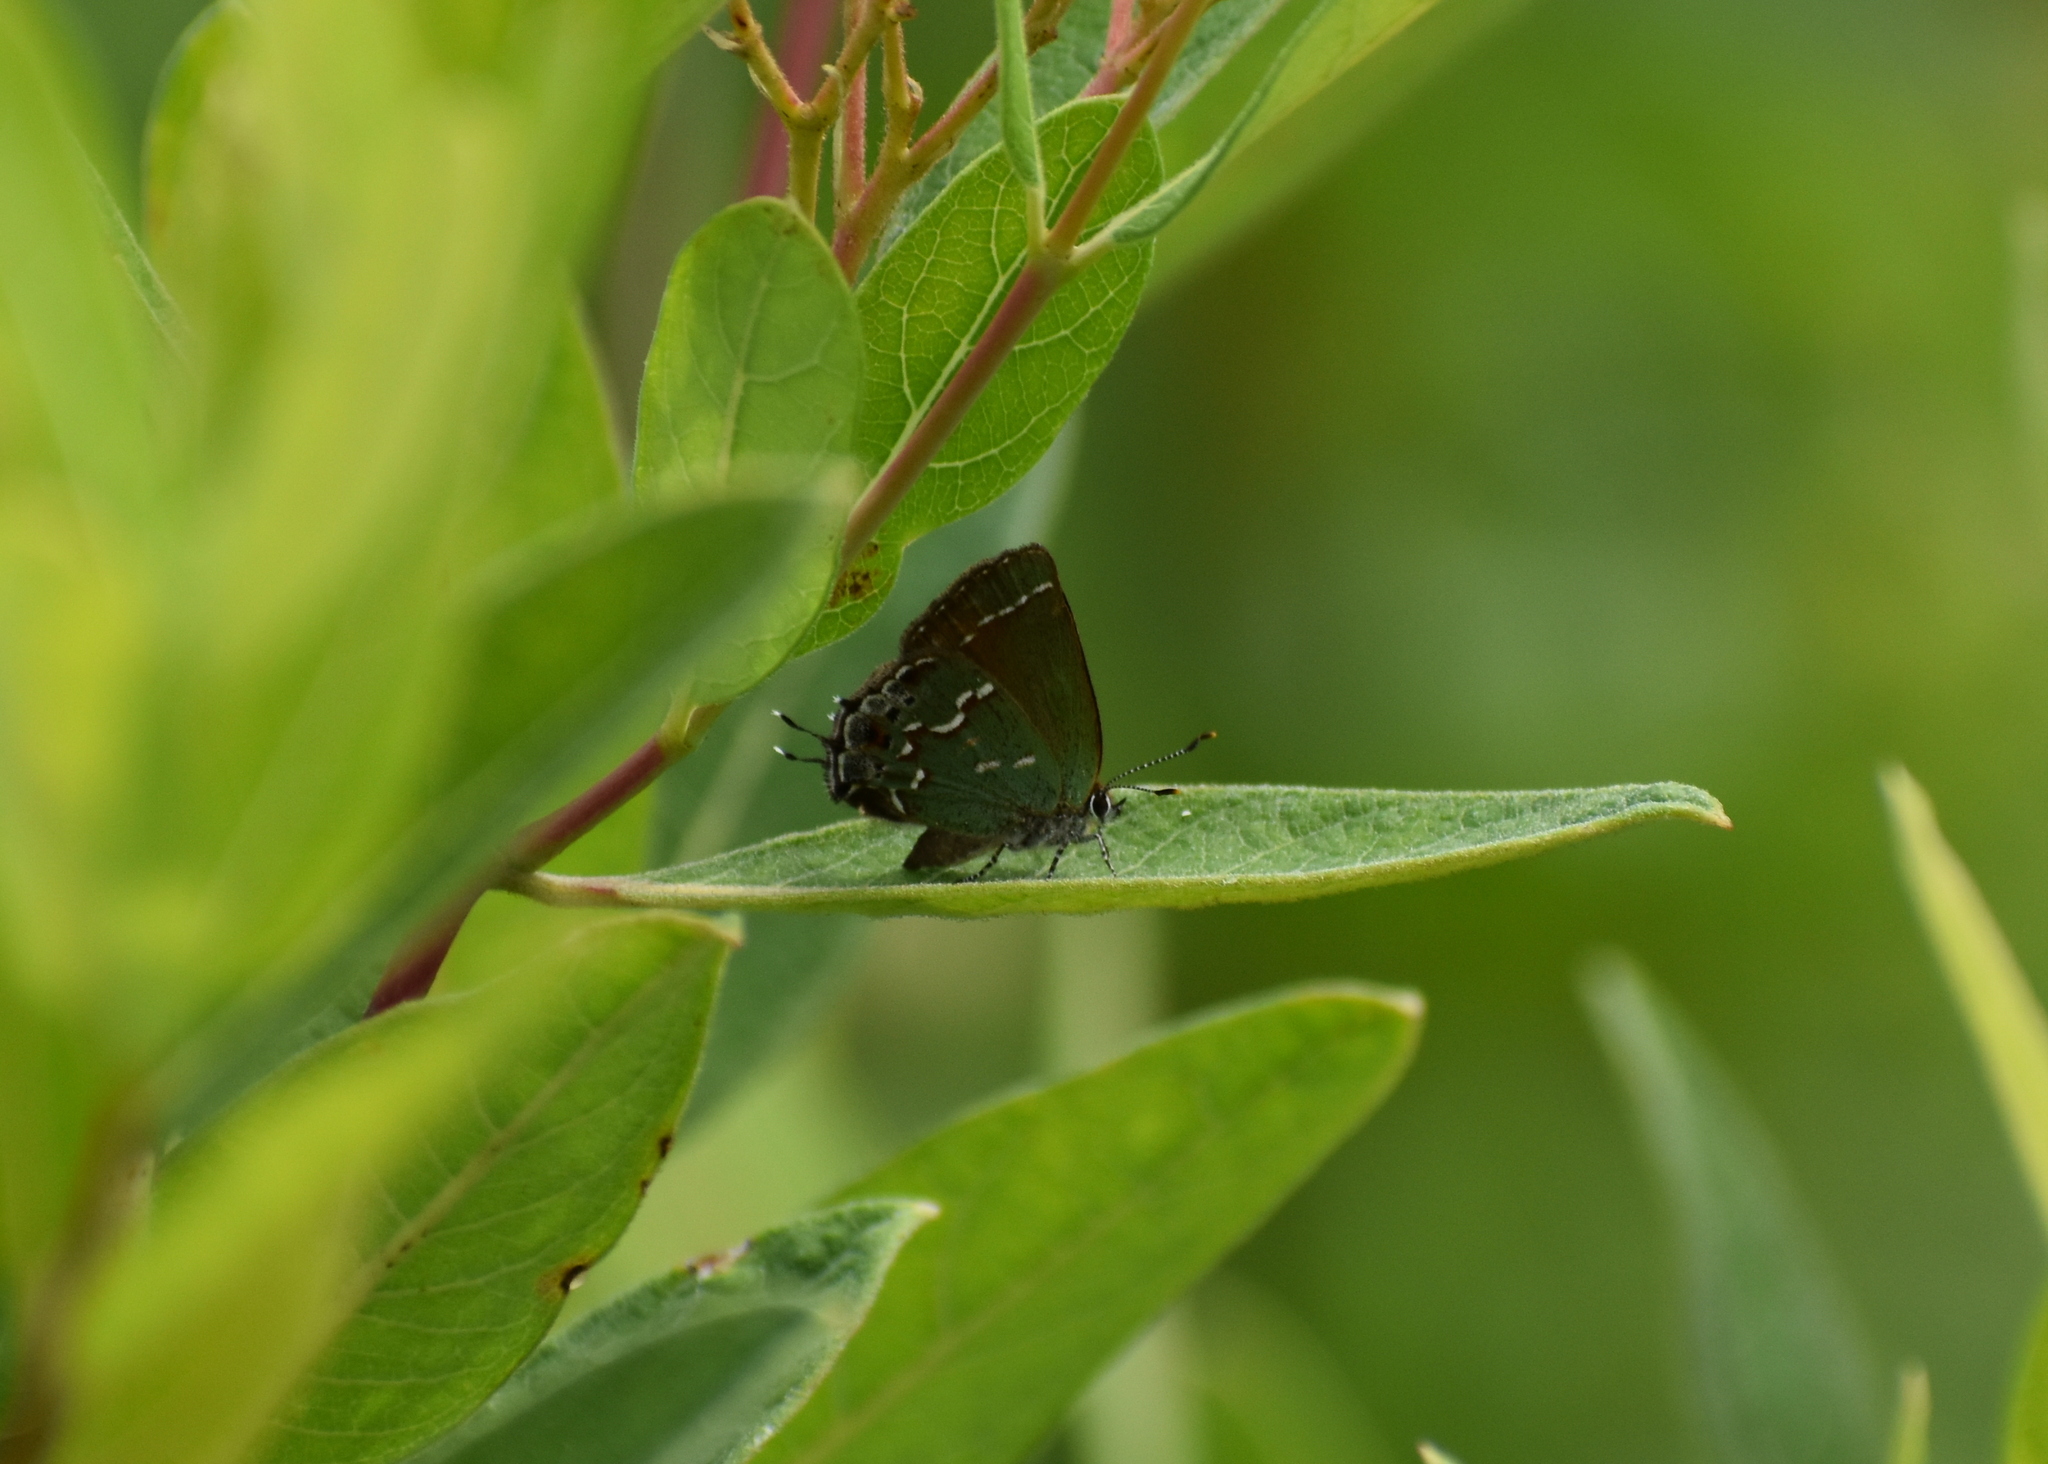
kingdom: Animalia
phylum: Arthropoda
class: Insecta
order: Lepidoptera
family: Lycaenidae
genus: Mitoura
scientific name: Mitoura gryneus
